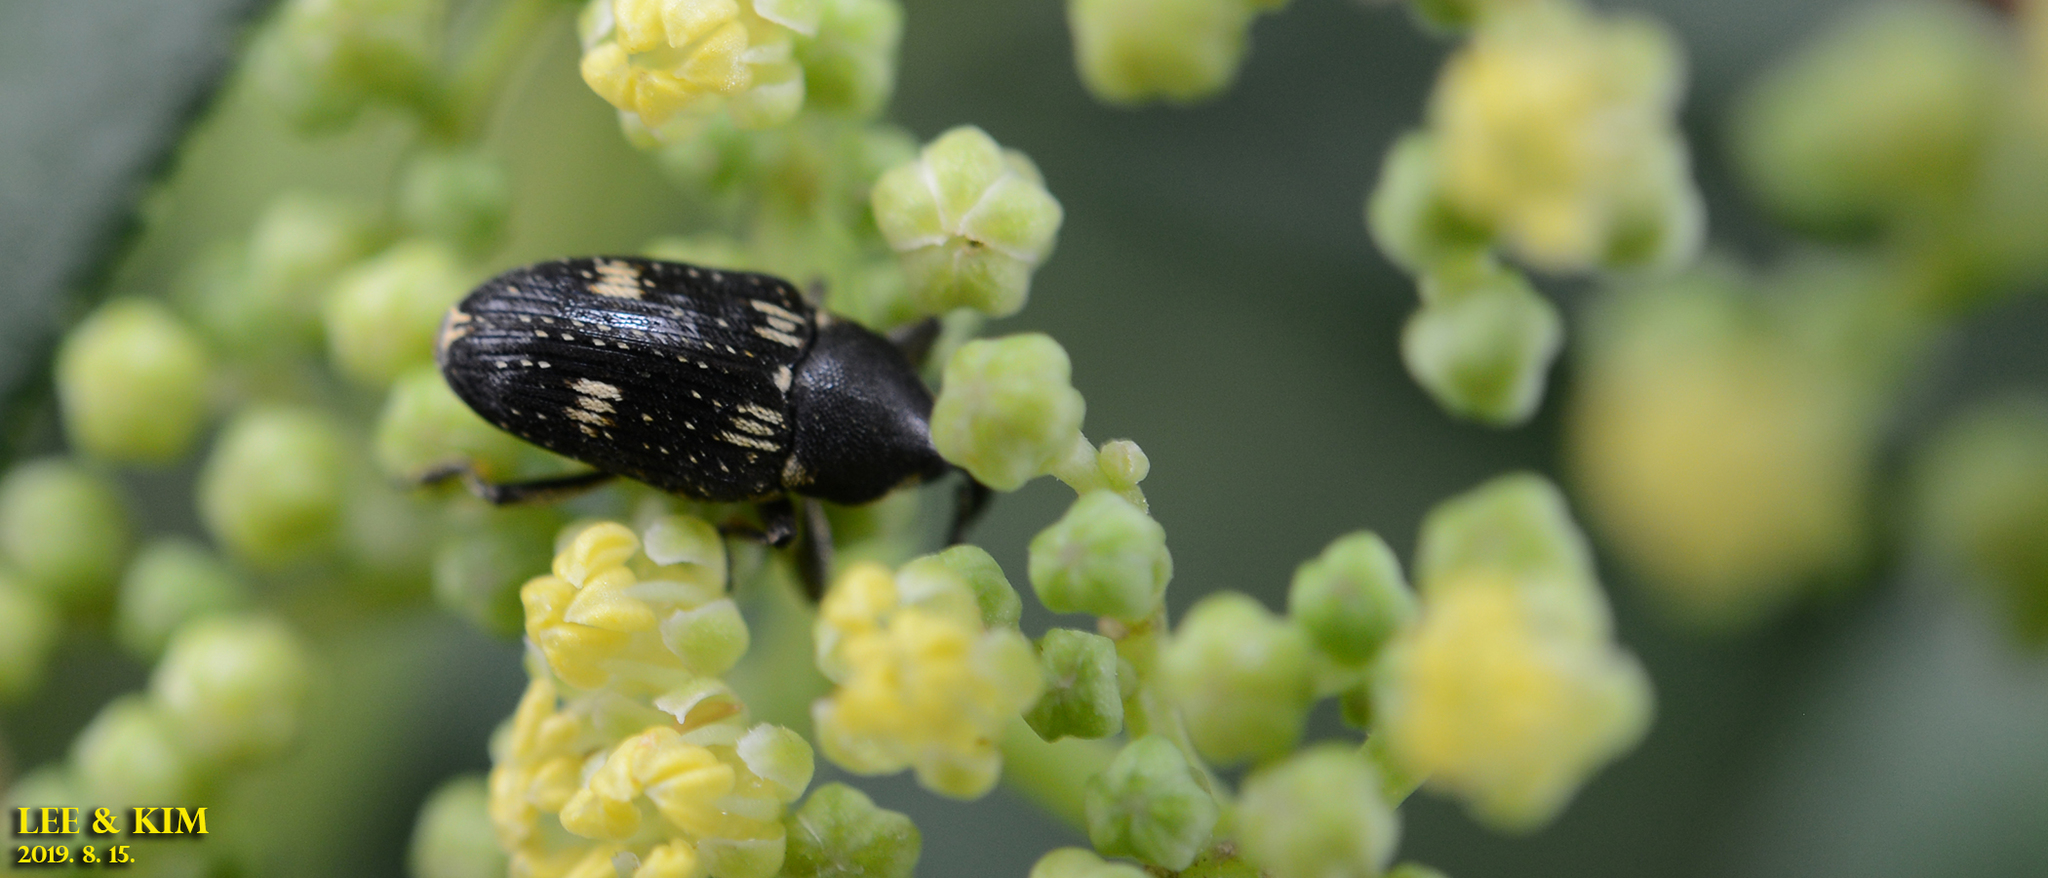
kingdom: Animalia
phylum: Arthropoda
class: Insecta
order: Coleoptera
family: Curculionidae
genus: Anthinobaris
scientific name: Anthinobaris dispilota
